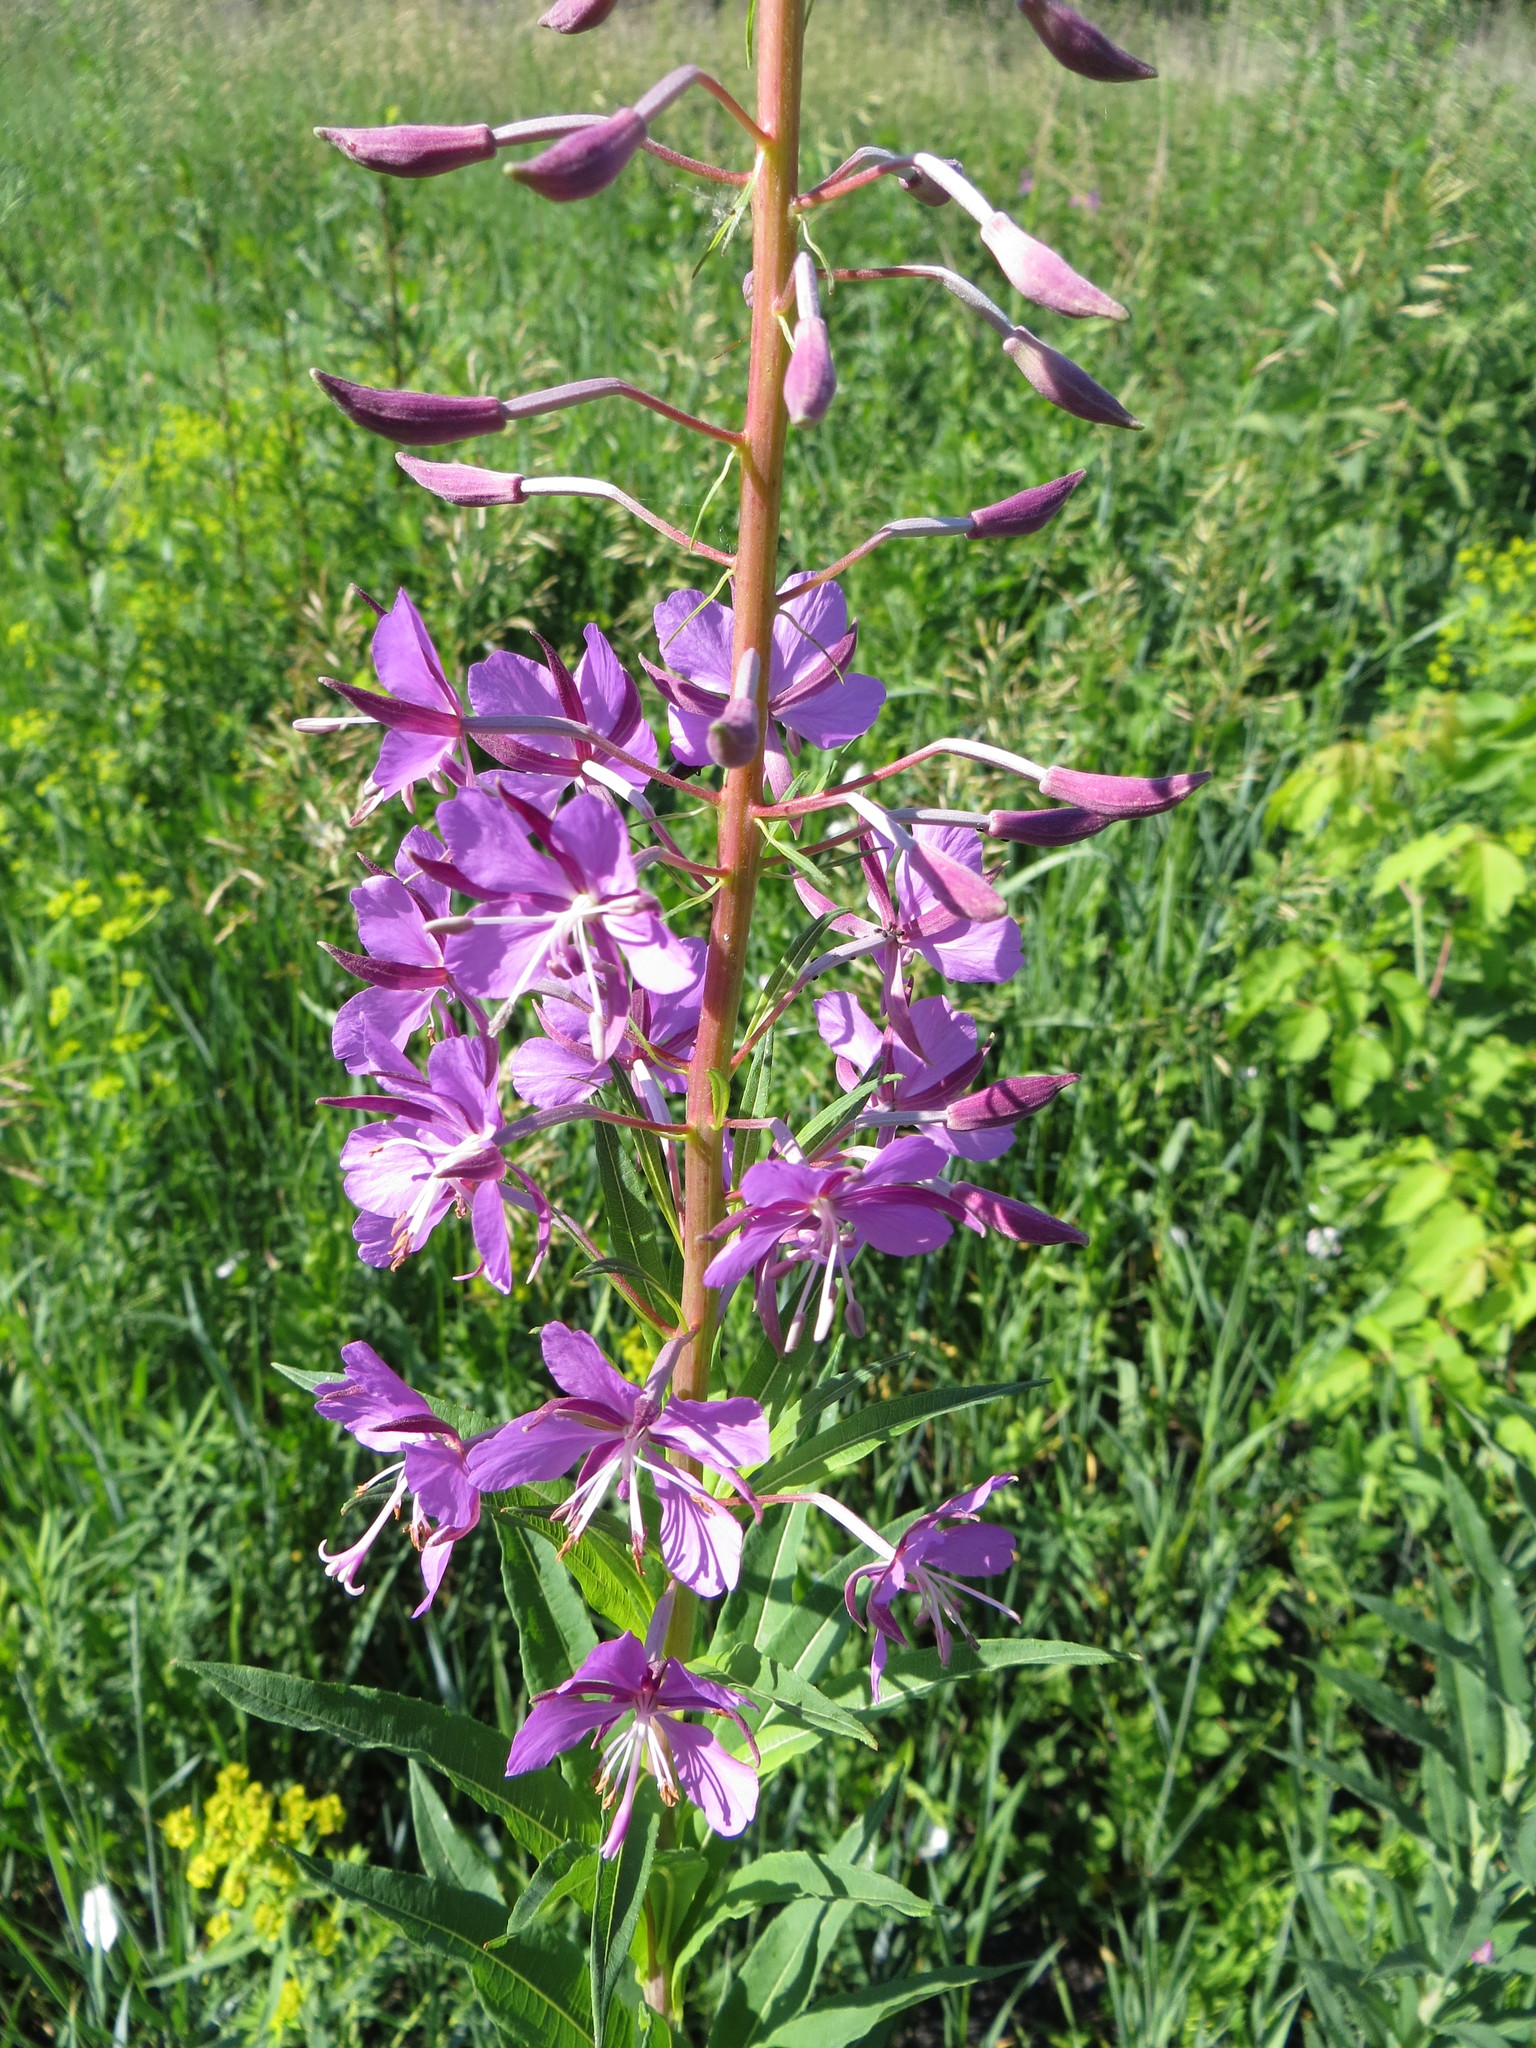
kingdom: Plantae
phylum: Tracheophyta
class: Magnoliopsida
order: Myrtales
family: Onagraceae
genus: Chamaenerion
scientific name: Chamaenerion angustifolium
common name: Fireweed
